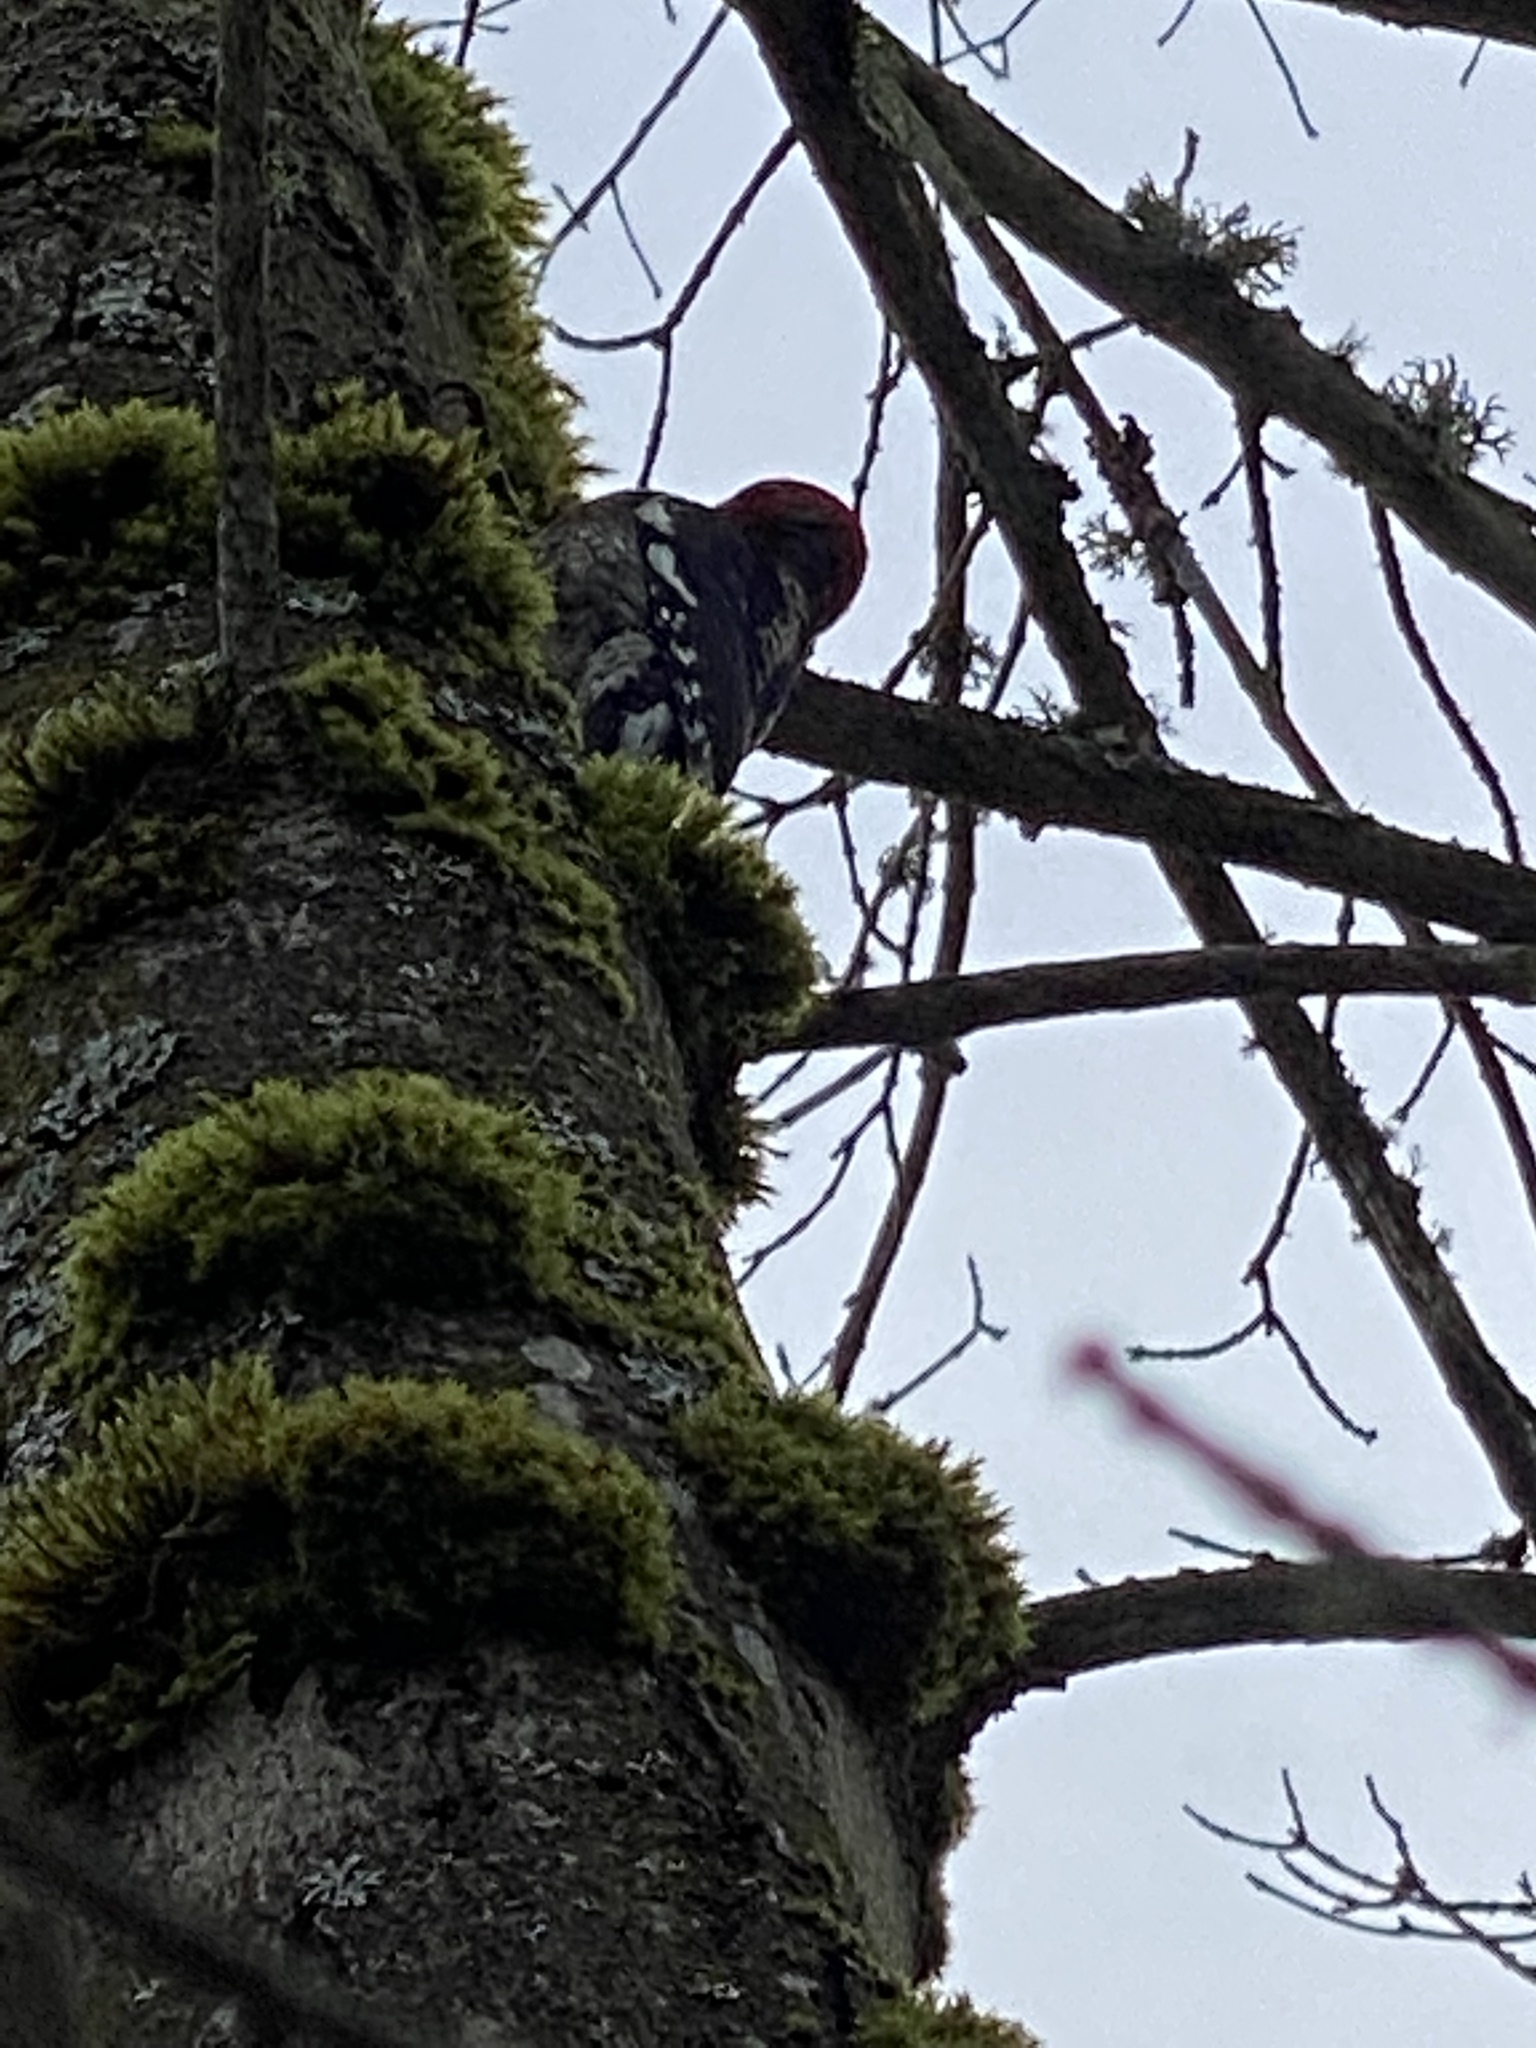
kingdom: Animalia
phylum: Chordata
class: Aves
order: Piciformes
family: Picidae
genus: Sphyrapicus
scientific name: Sphyrapicus ruber
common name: Red-breasted sapsucker
